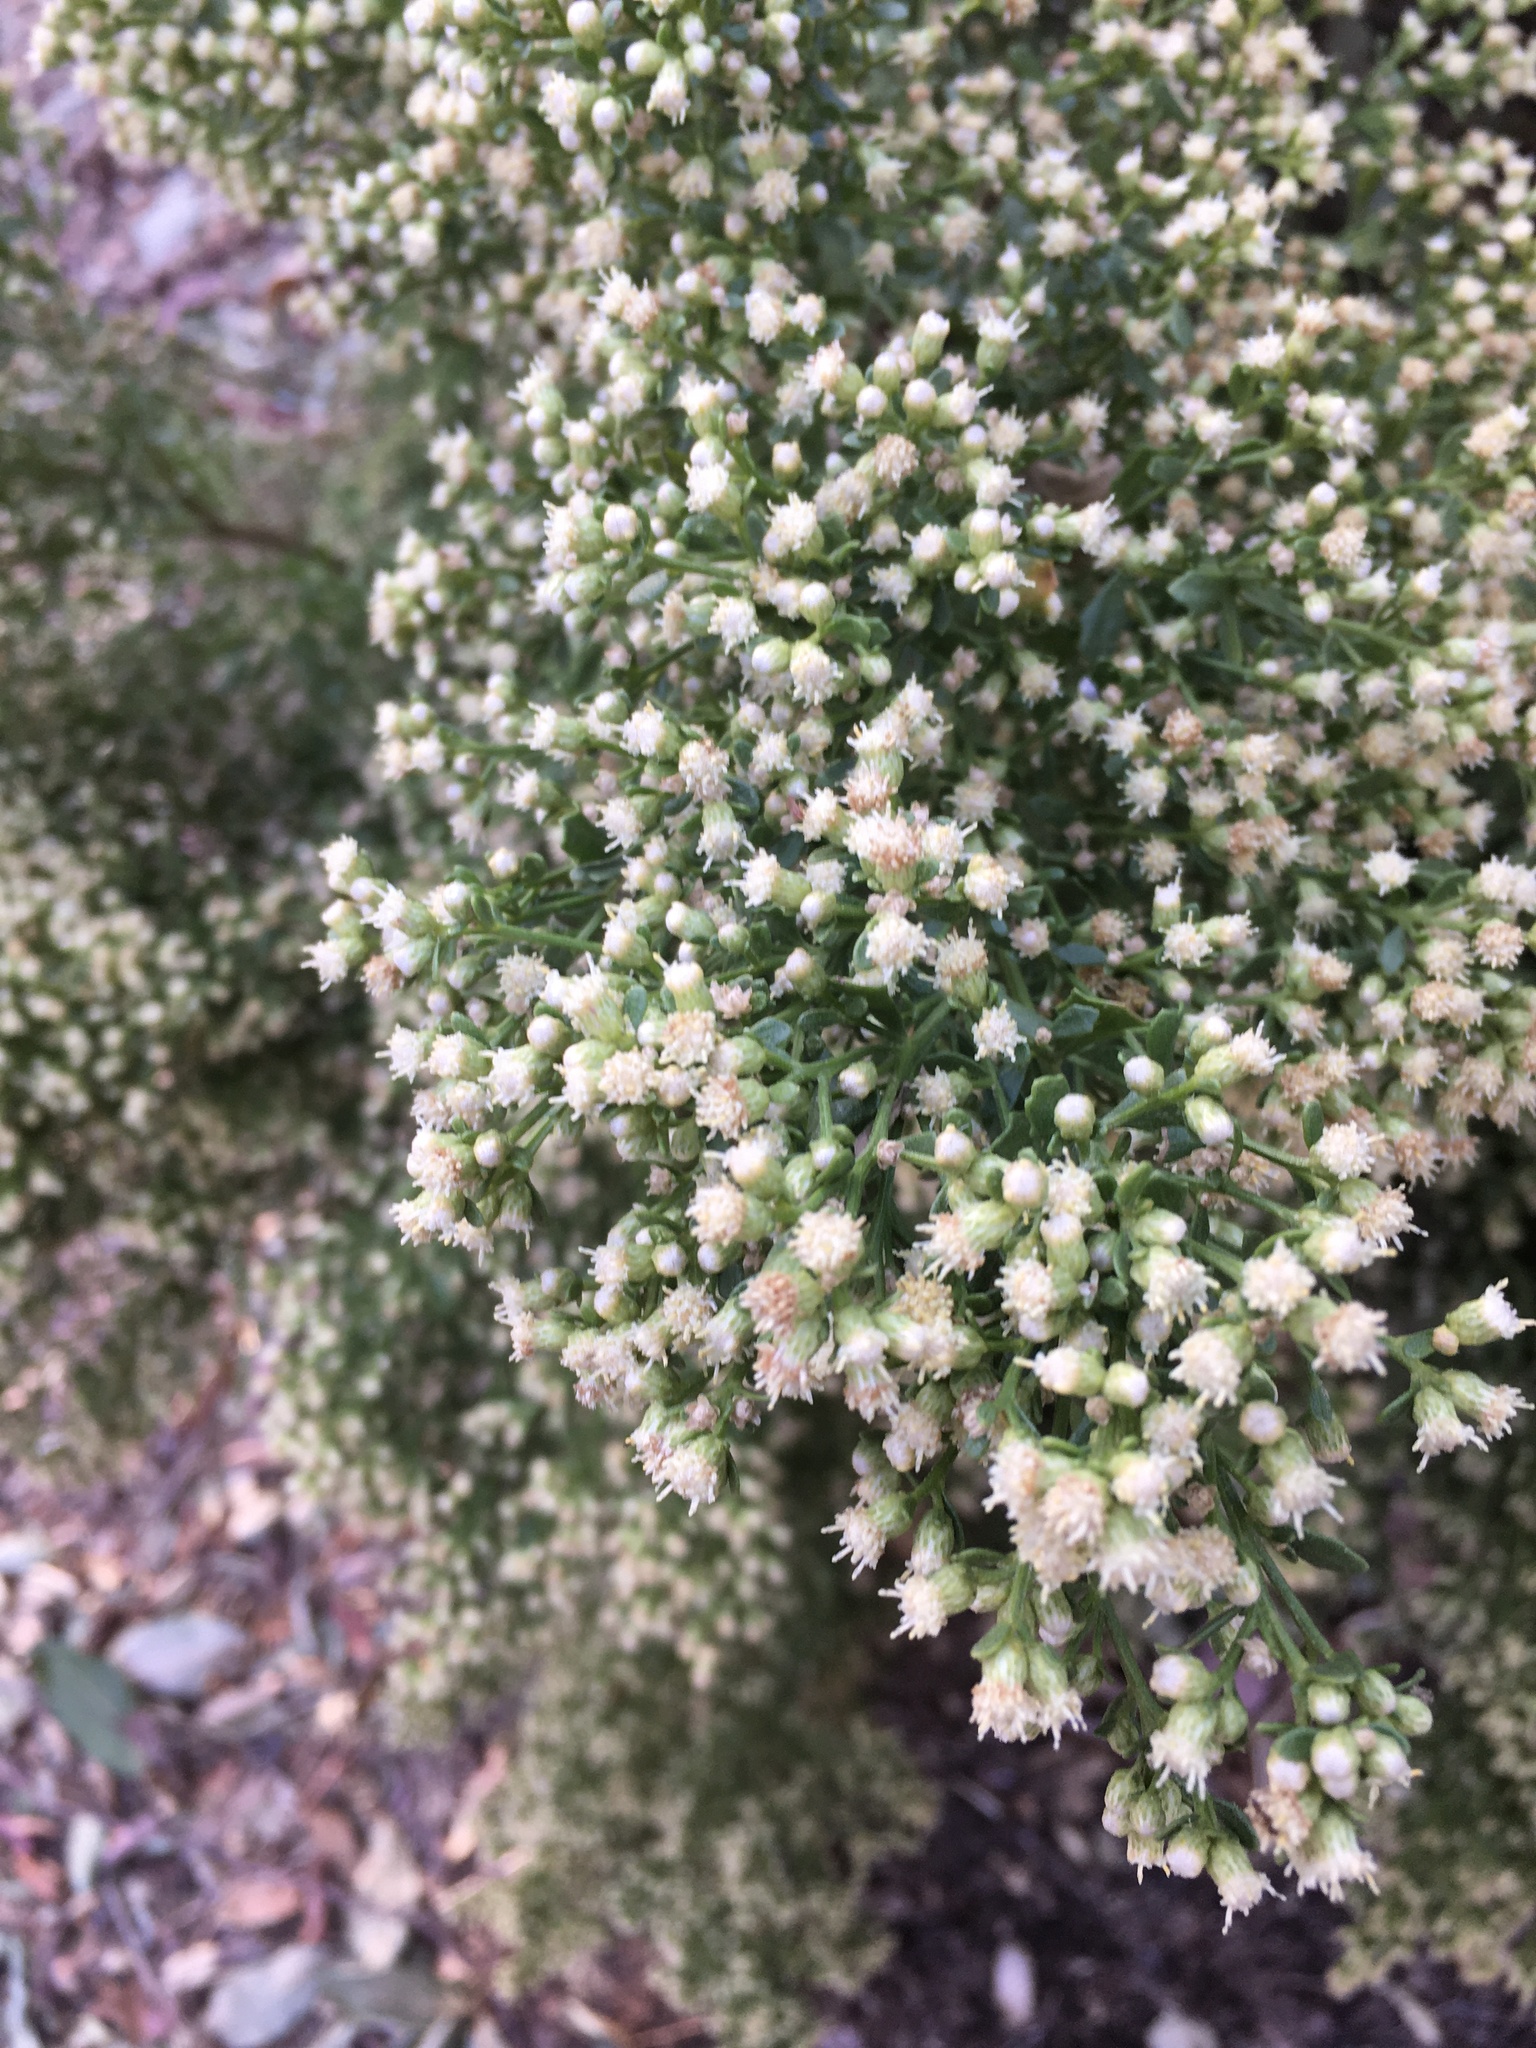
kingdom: Plantae
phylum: Tracheophyta
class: Magnoliopsida
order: Asterales
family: Asteraceae
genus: Baccharis
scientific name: Baccharis pilularis
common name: Coyotebrush
